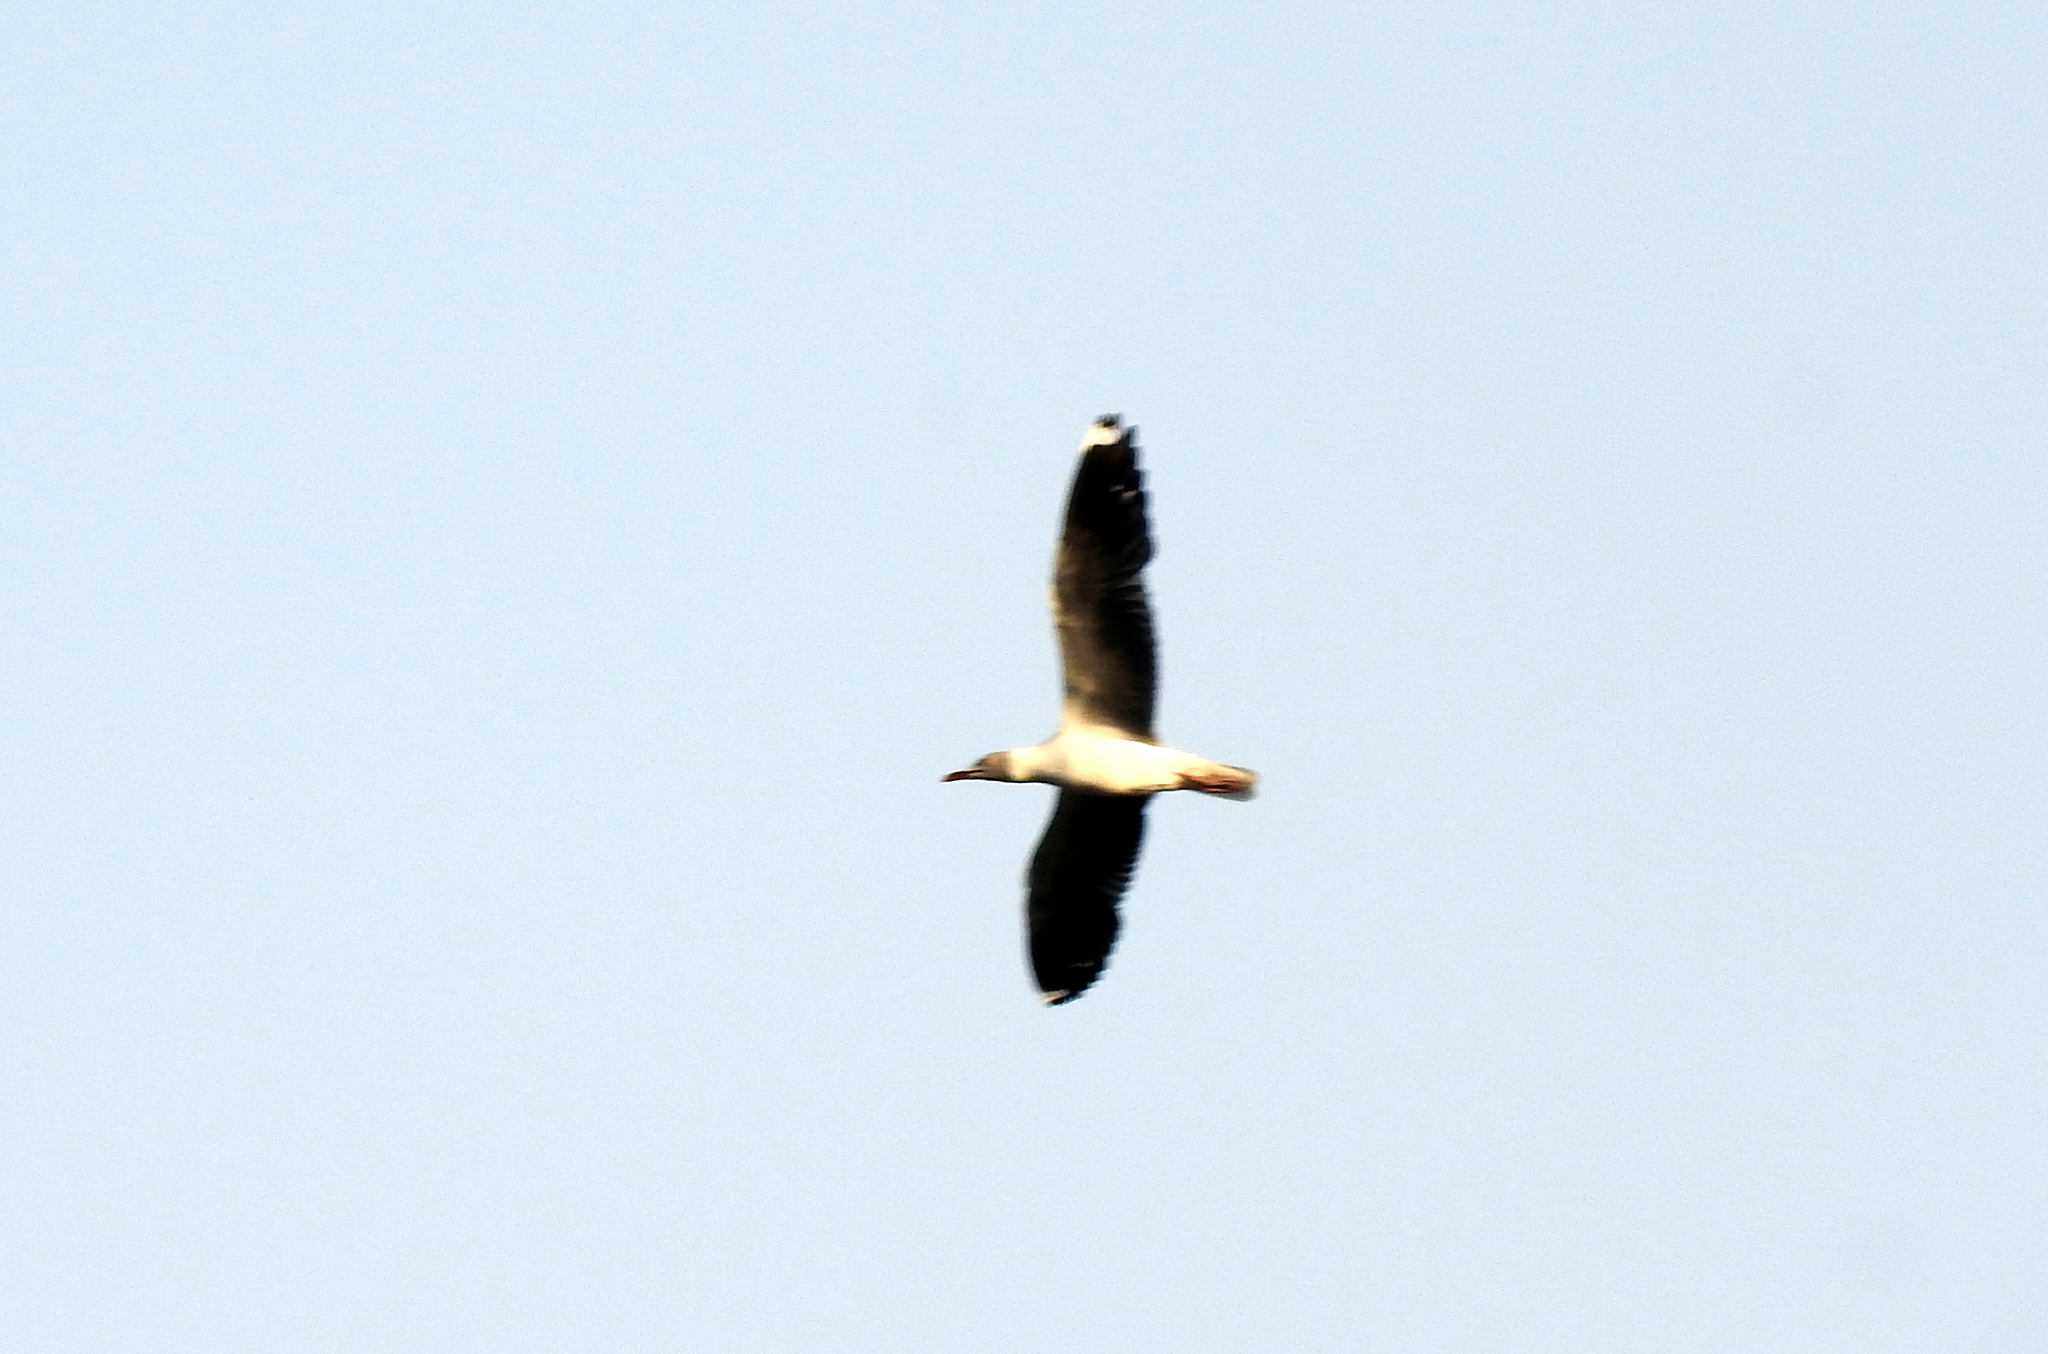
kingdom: Animalia
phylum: Chordata
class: Aves
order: Charadriiformes
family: Laridae
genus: Chroicocephalus
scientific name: Chroicocephalus cirrocephalus
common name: Grey-headed gull
